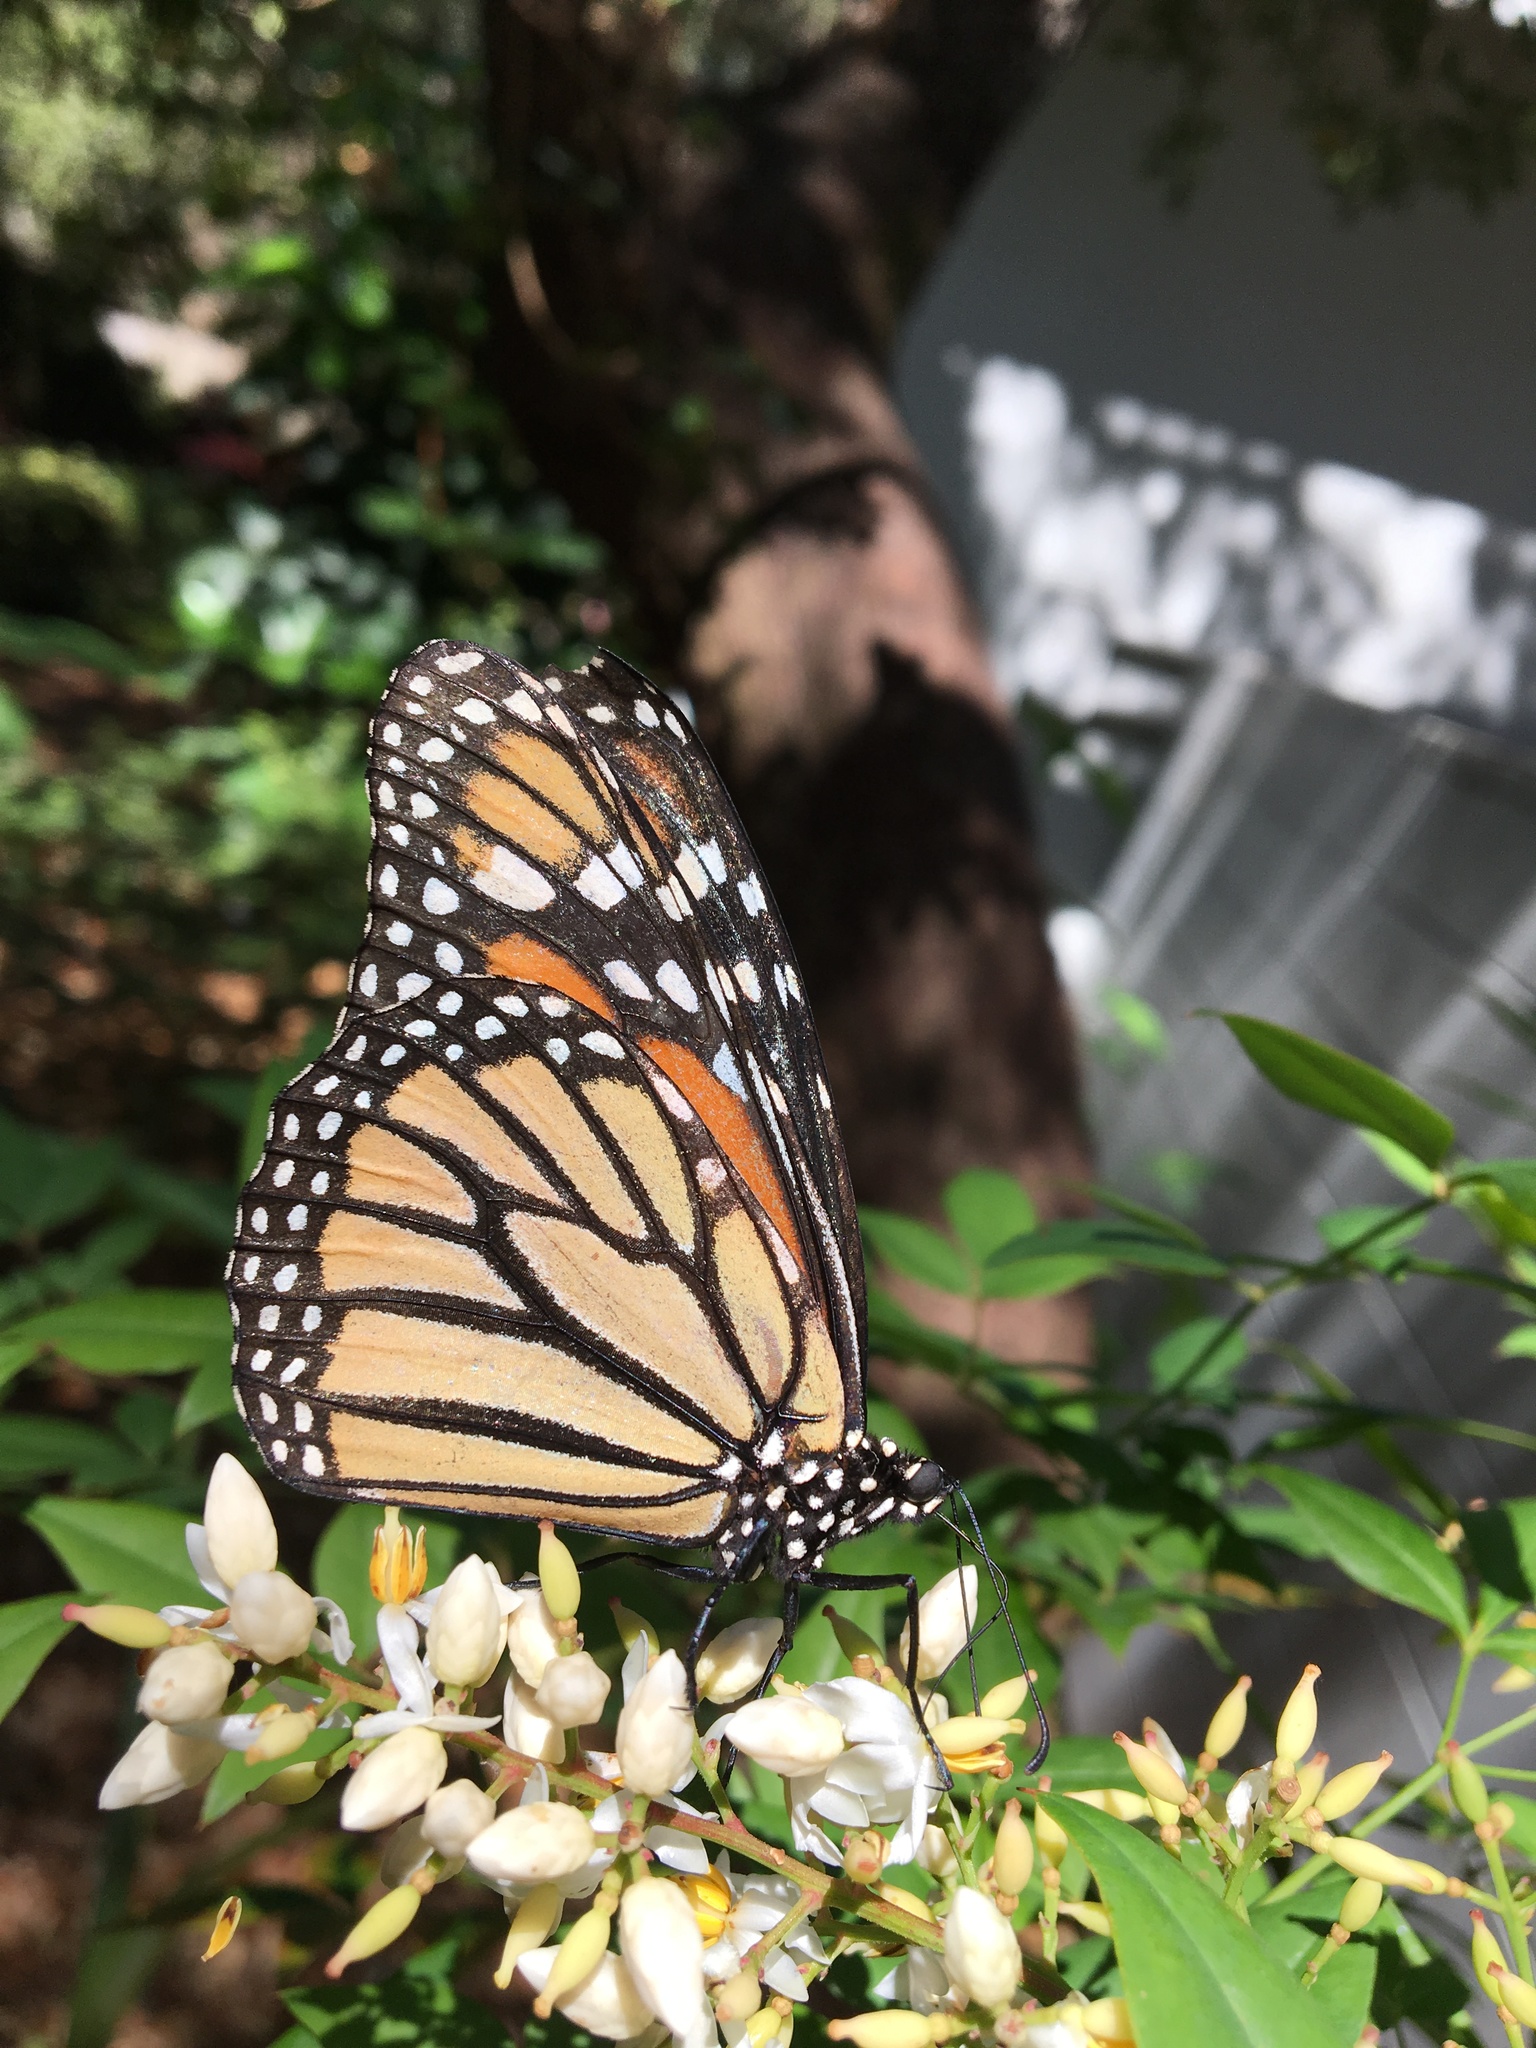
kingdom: Animalia
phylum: Arthropoda
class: Insecta
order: Lepidoptera
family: Nymphalidae
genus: Danaus
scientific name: Danaus plexippus
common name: Monarch
